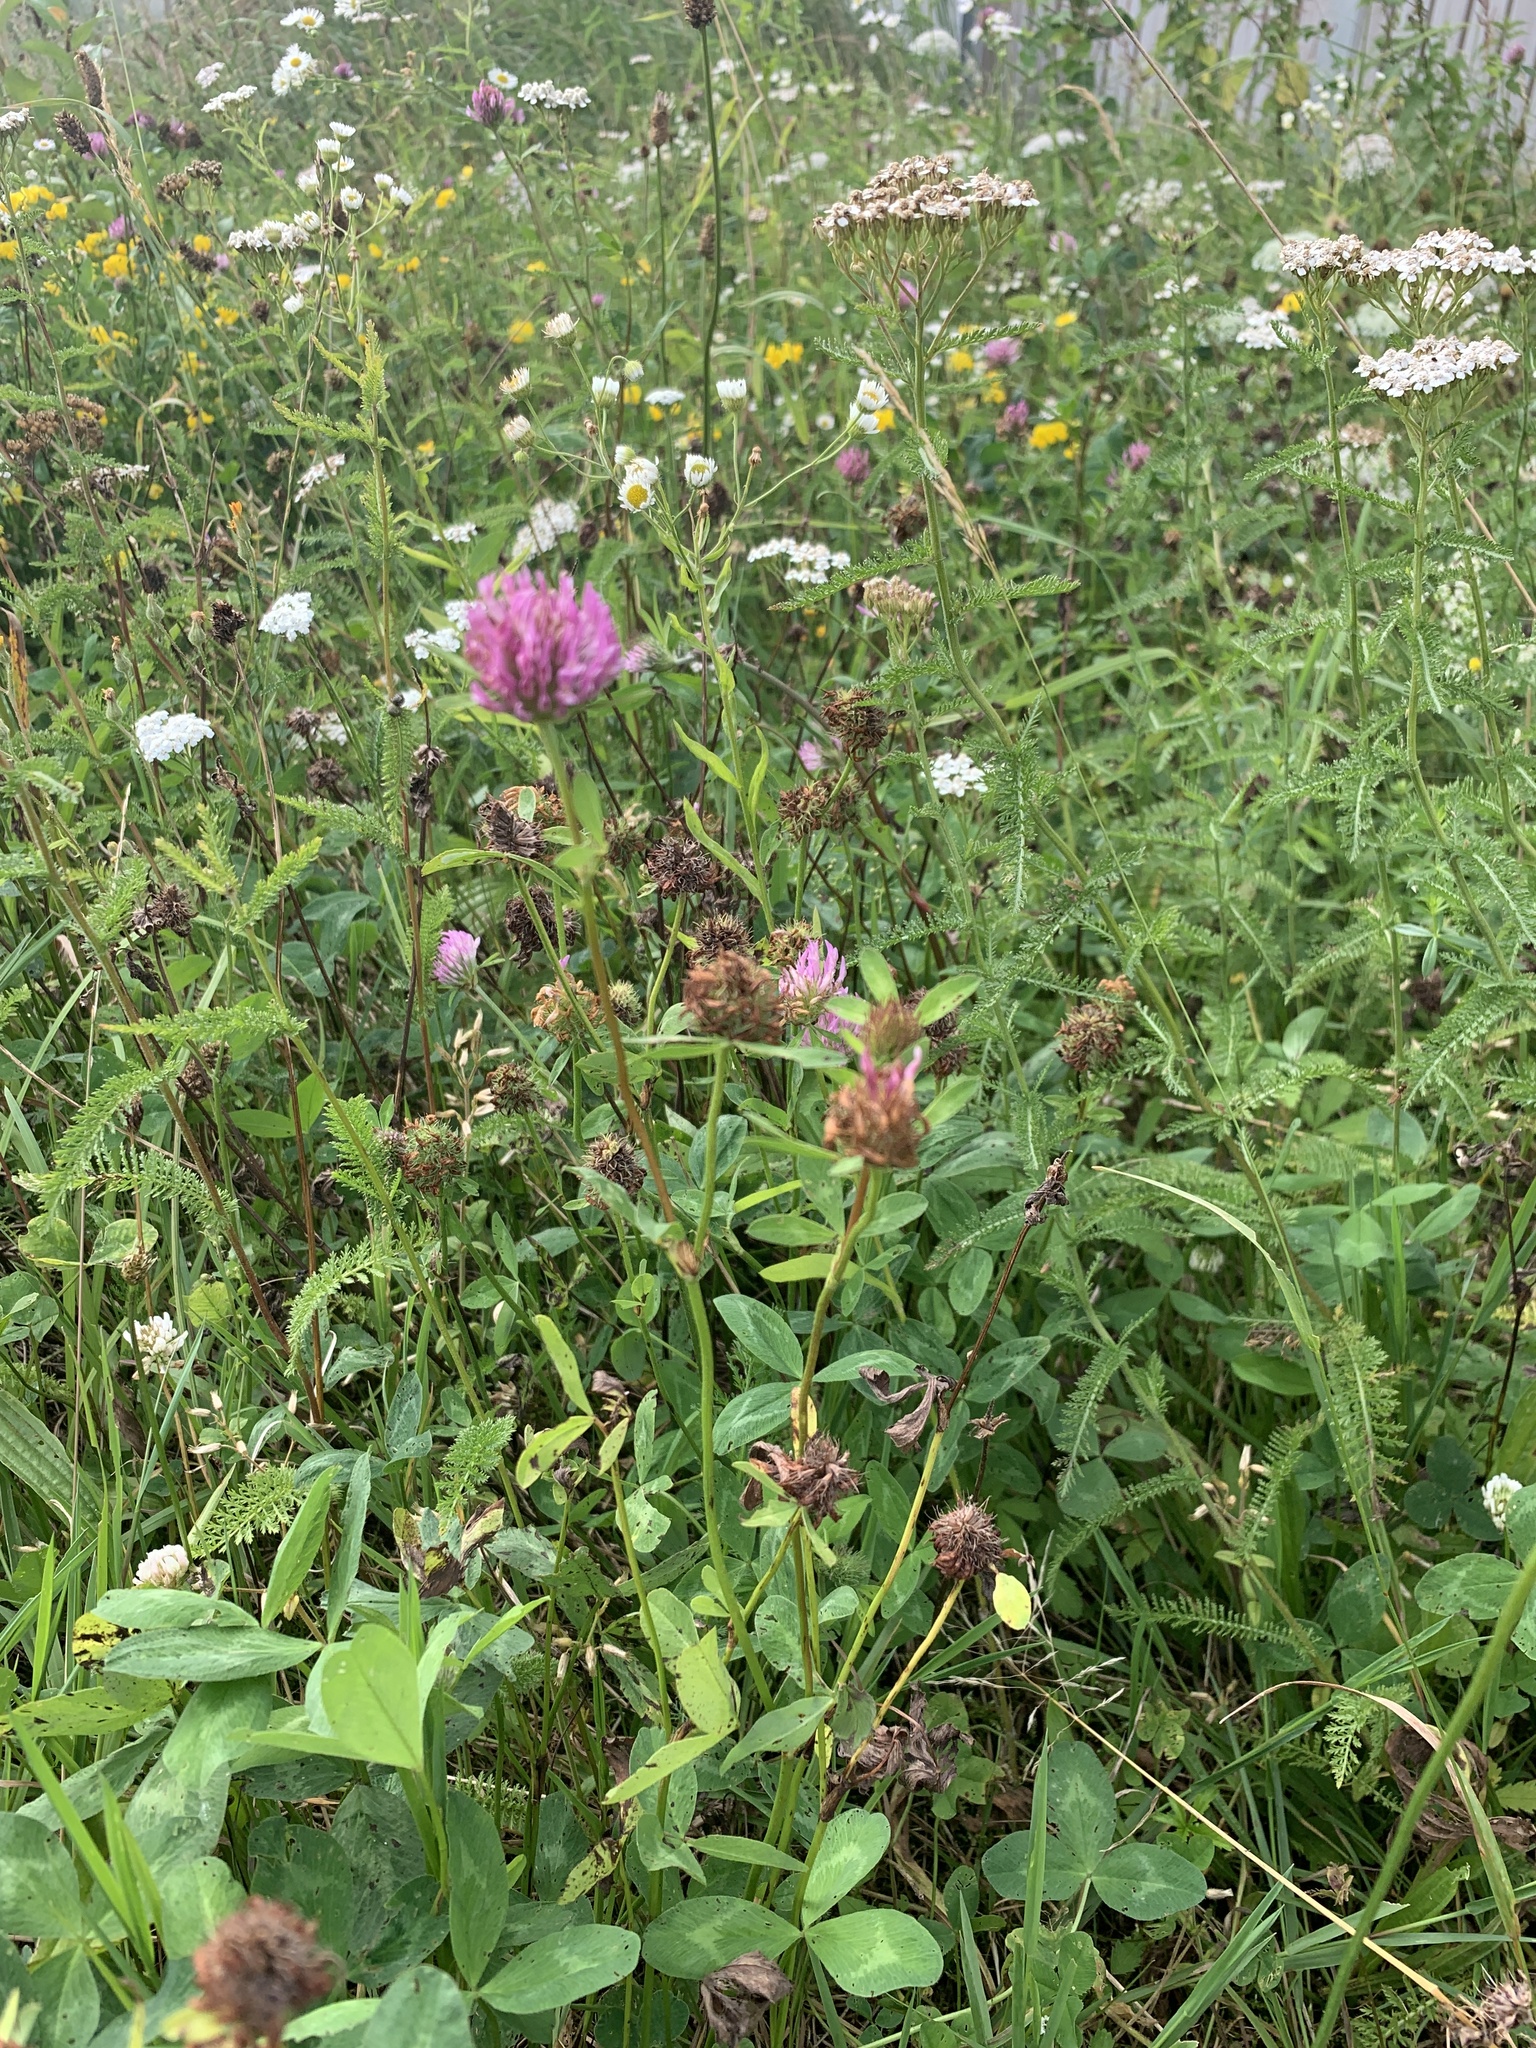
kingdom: Plantae
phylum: Tracheophyta
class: Magnoliopsida
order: Fabales
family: Fabaceae
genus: Trifolium
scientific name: Trifolium pratense
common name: Red clover
